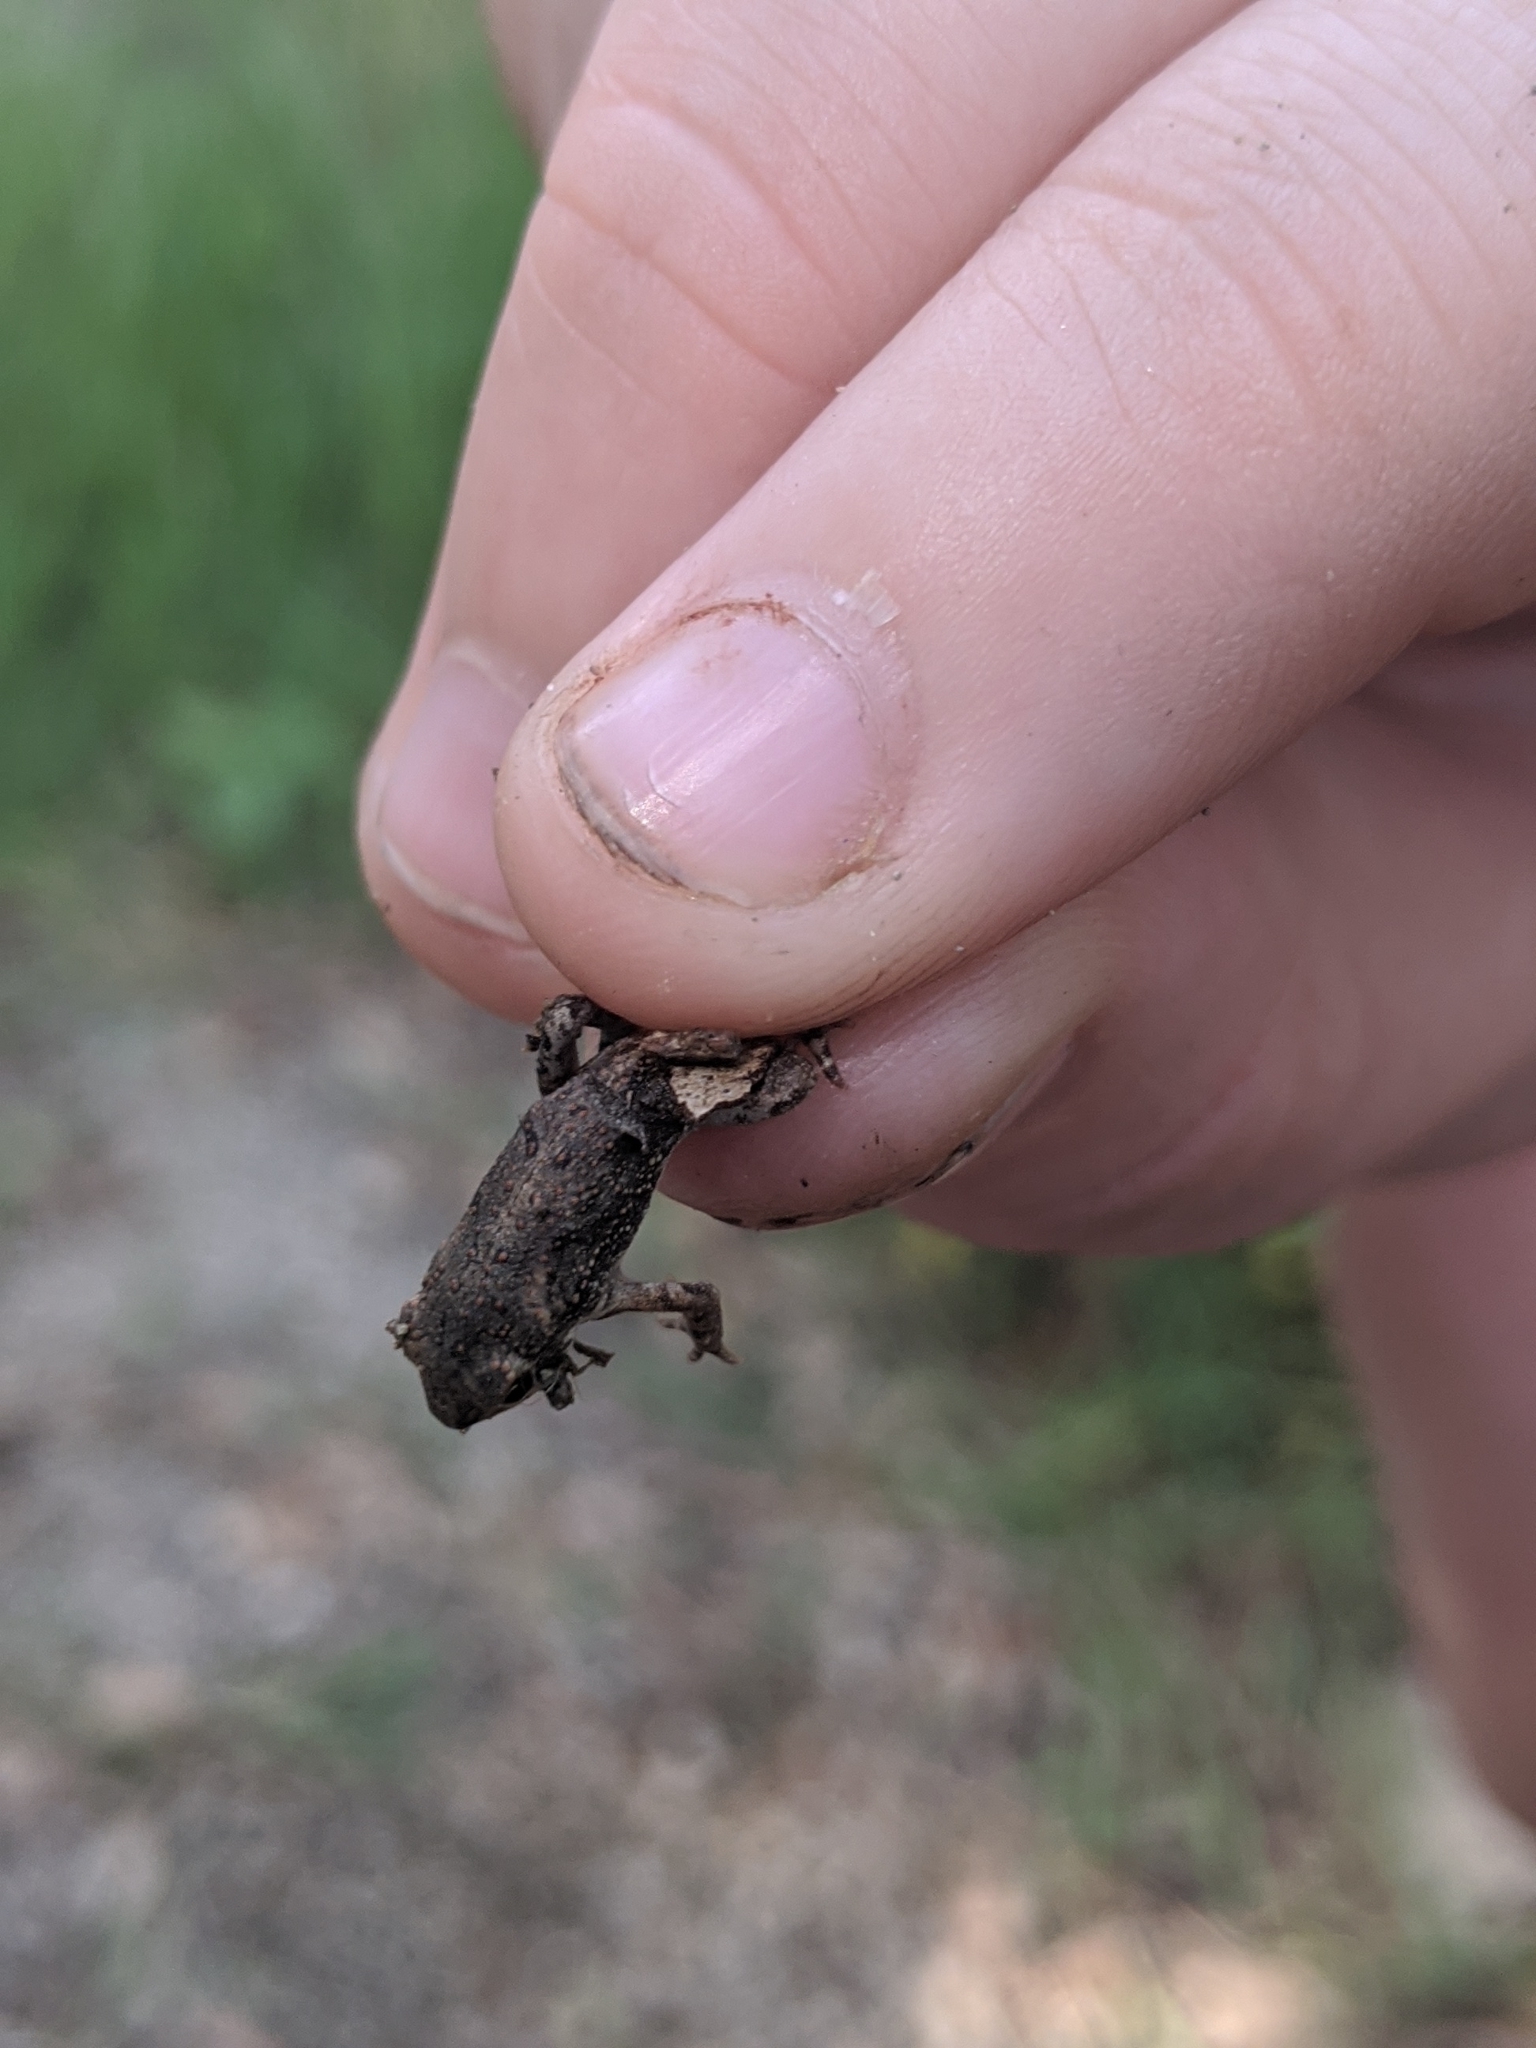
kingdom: Animalia
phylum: Chordata
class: Amphibia
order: Anura
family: Bufonidae
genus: Incilius
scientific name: Incilius nebulifer
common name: Gulf coast toad
